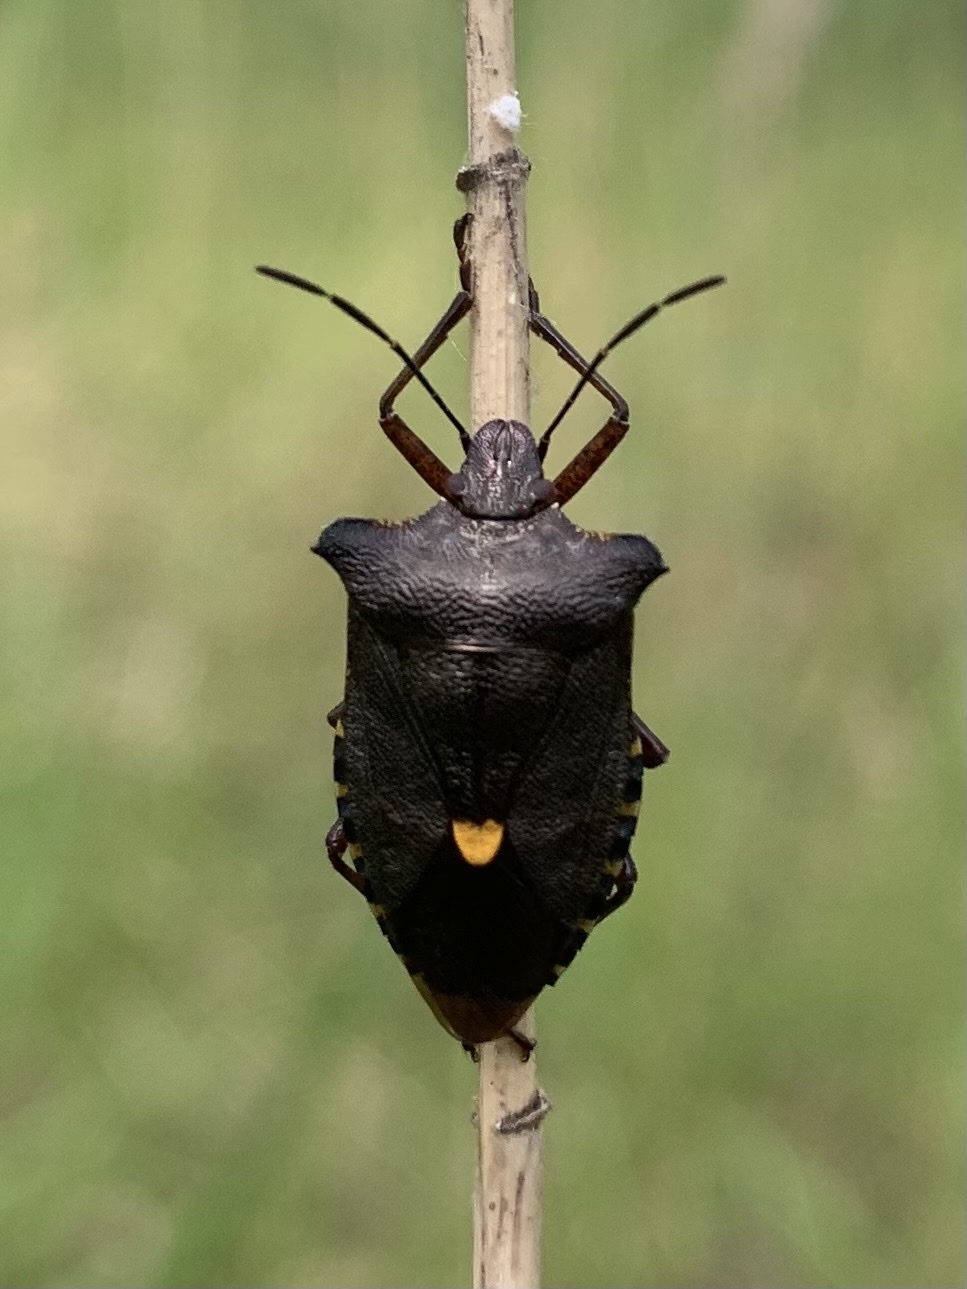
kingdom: Animalia
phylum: Arthropoda
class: Insecta
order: Hemiptera
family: Pentatomidae
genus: Pentatoma
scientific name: Pentatoma rufipes
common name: Forest bug
